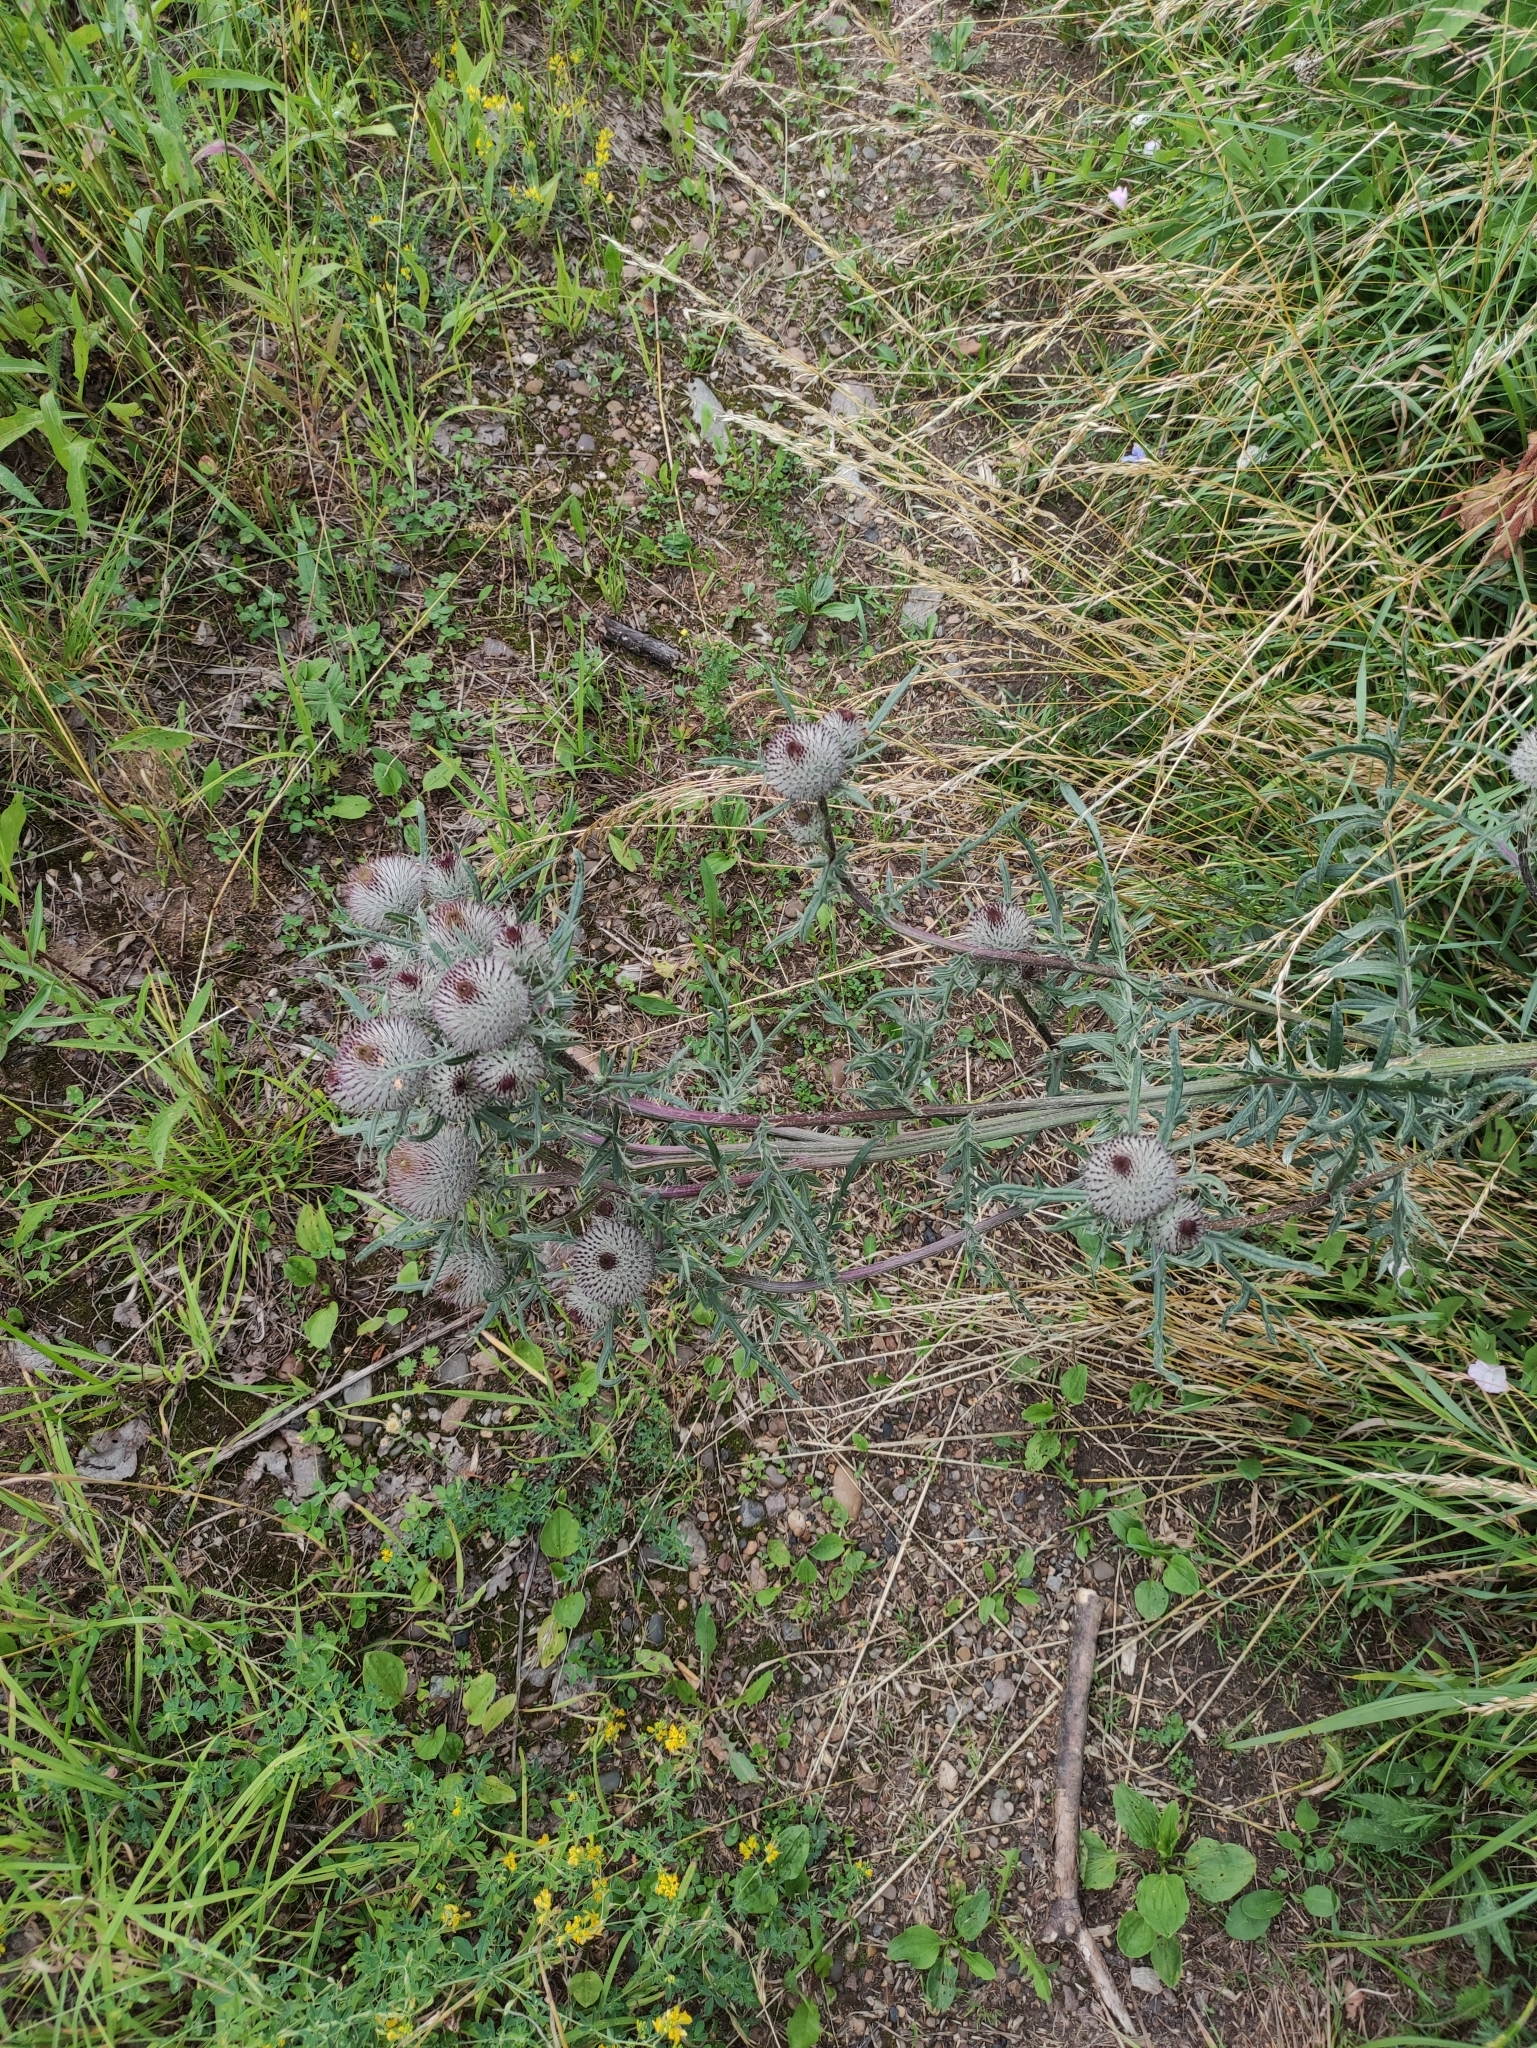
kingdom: Plantae
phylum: Tracheophyta
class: Magnoliopsida
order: Asterales
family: Asteraceae
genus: Lophiolepis
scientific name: Lophiolepis decussata
